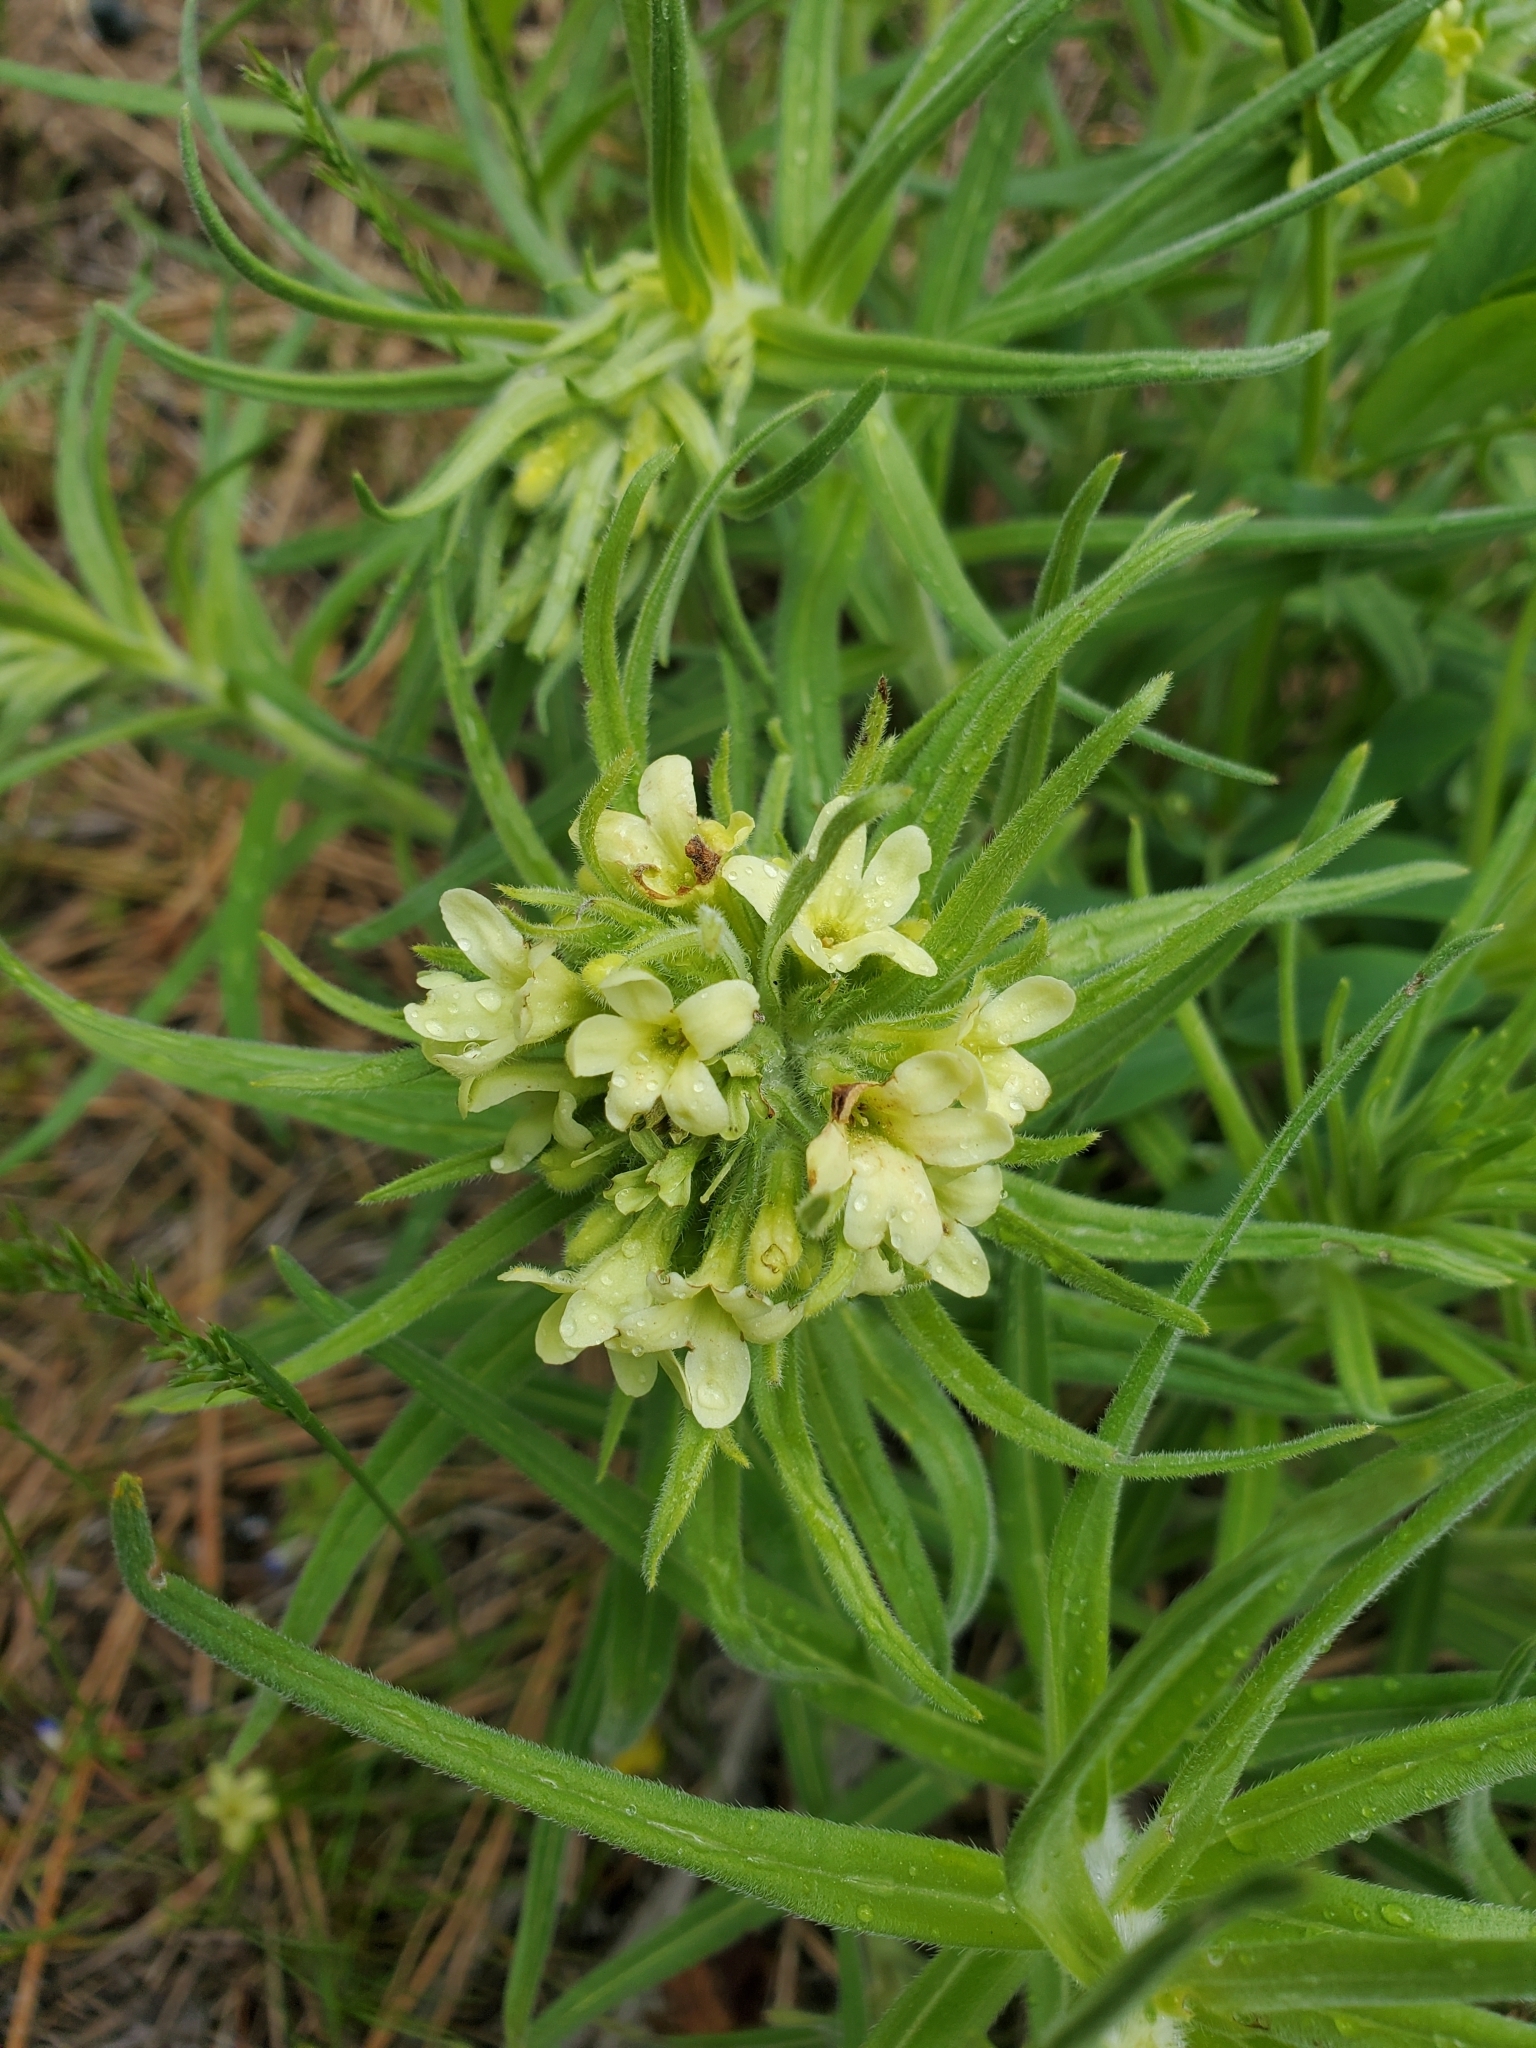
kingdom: Plantae
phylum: Tracheophyta
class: Magnoliopsida
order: Boraginales
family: Boraginaceae
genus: Lithospermum
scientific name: Lithospermum ruderale
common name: Western gromwell
